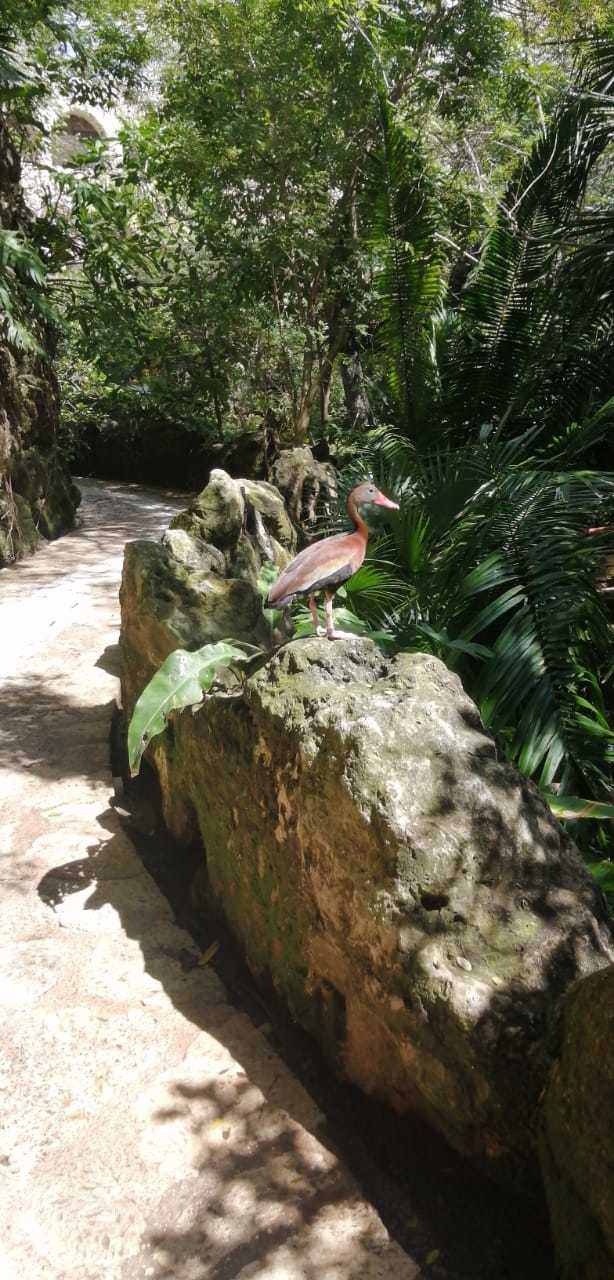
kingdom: Animalia
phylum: Chordata
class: Aves
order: Anseriformes
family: Anatidae
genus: Dendrocygna
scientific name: Dendrocygna autumnalis
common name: Black-bellied whistling duck
